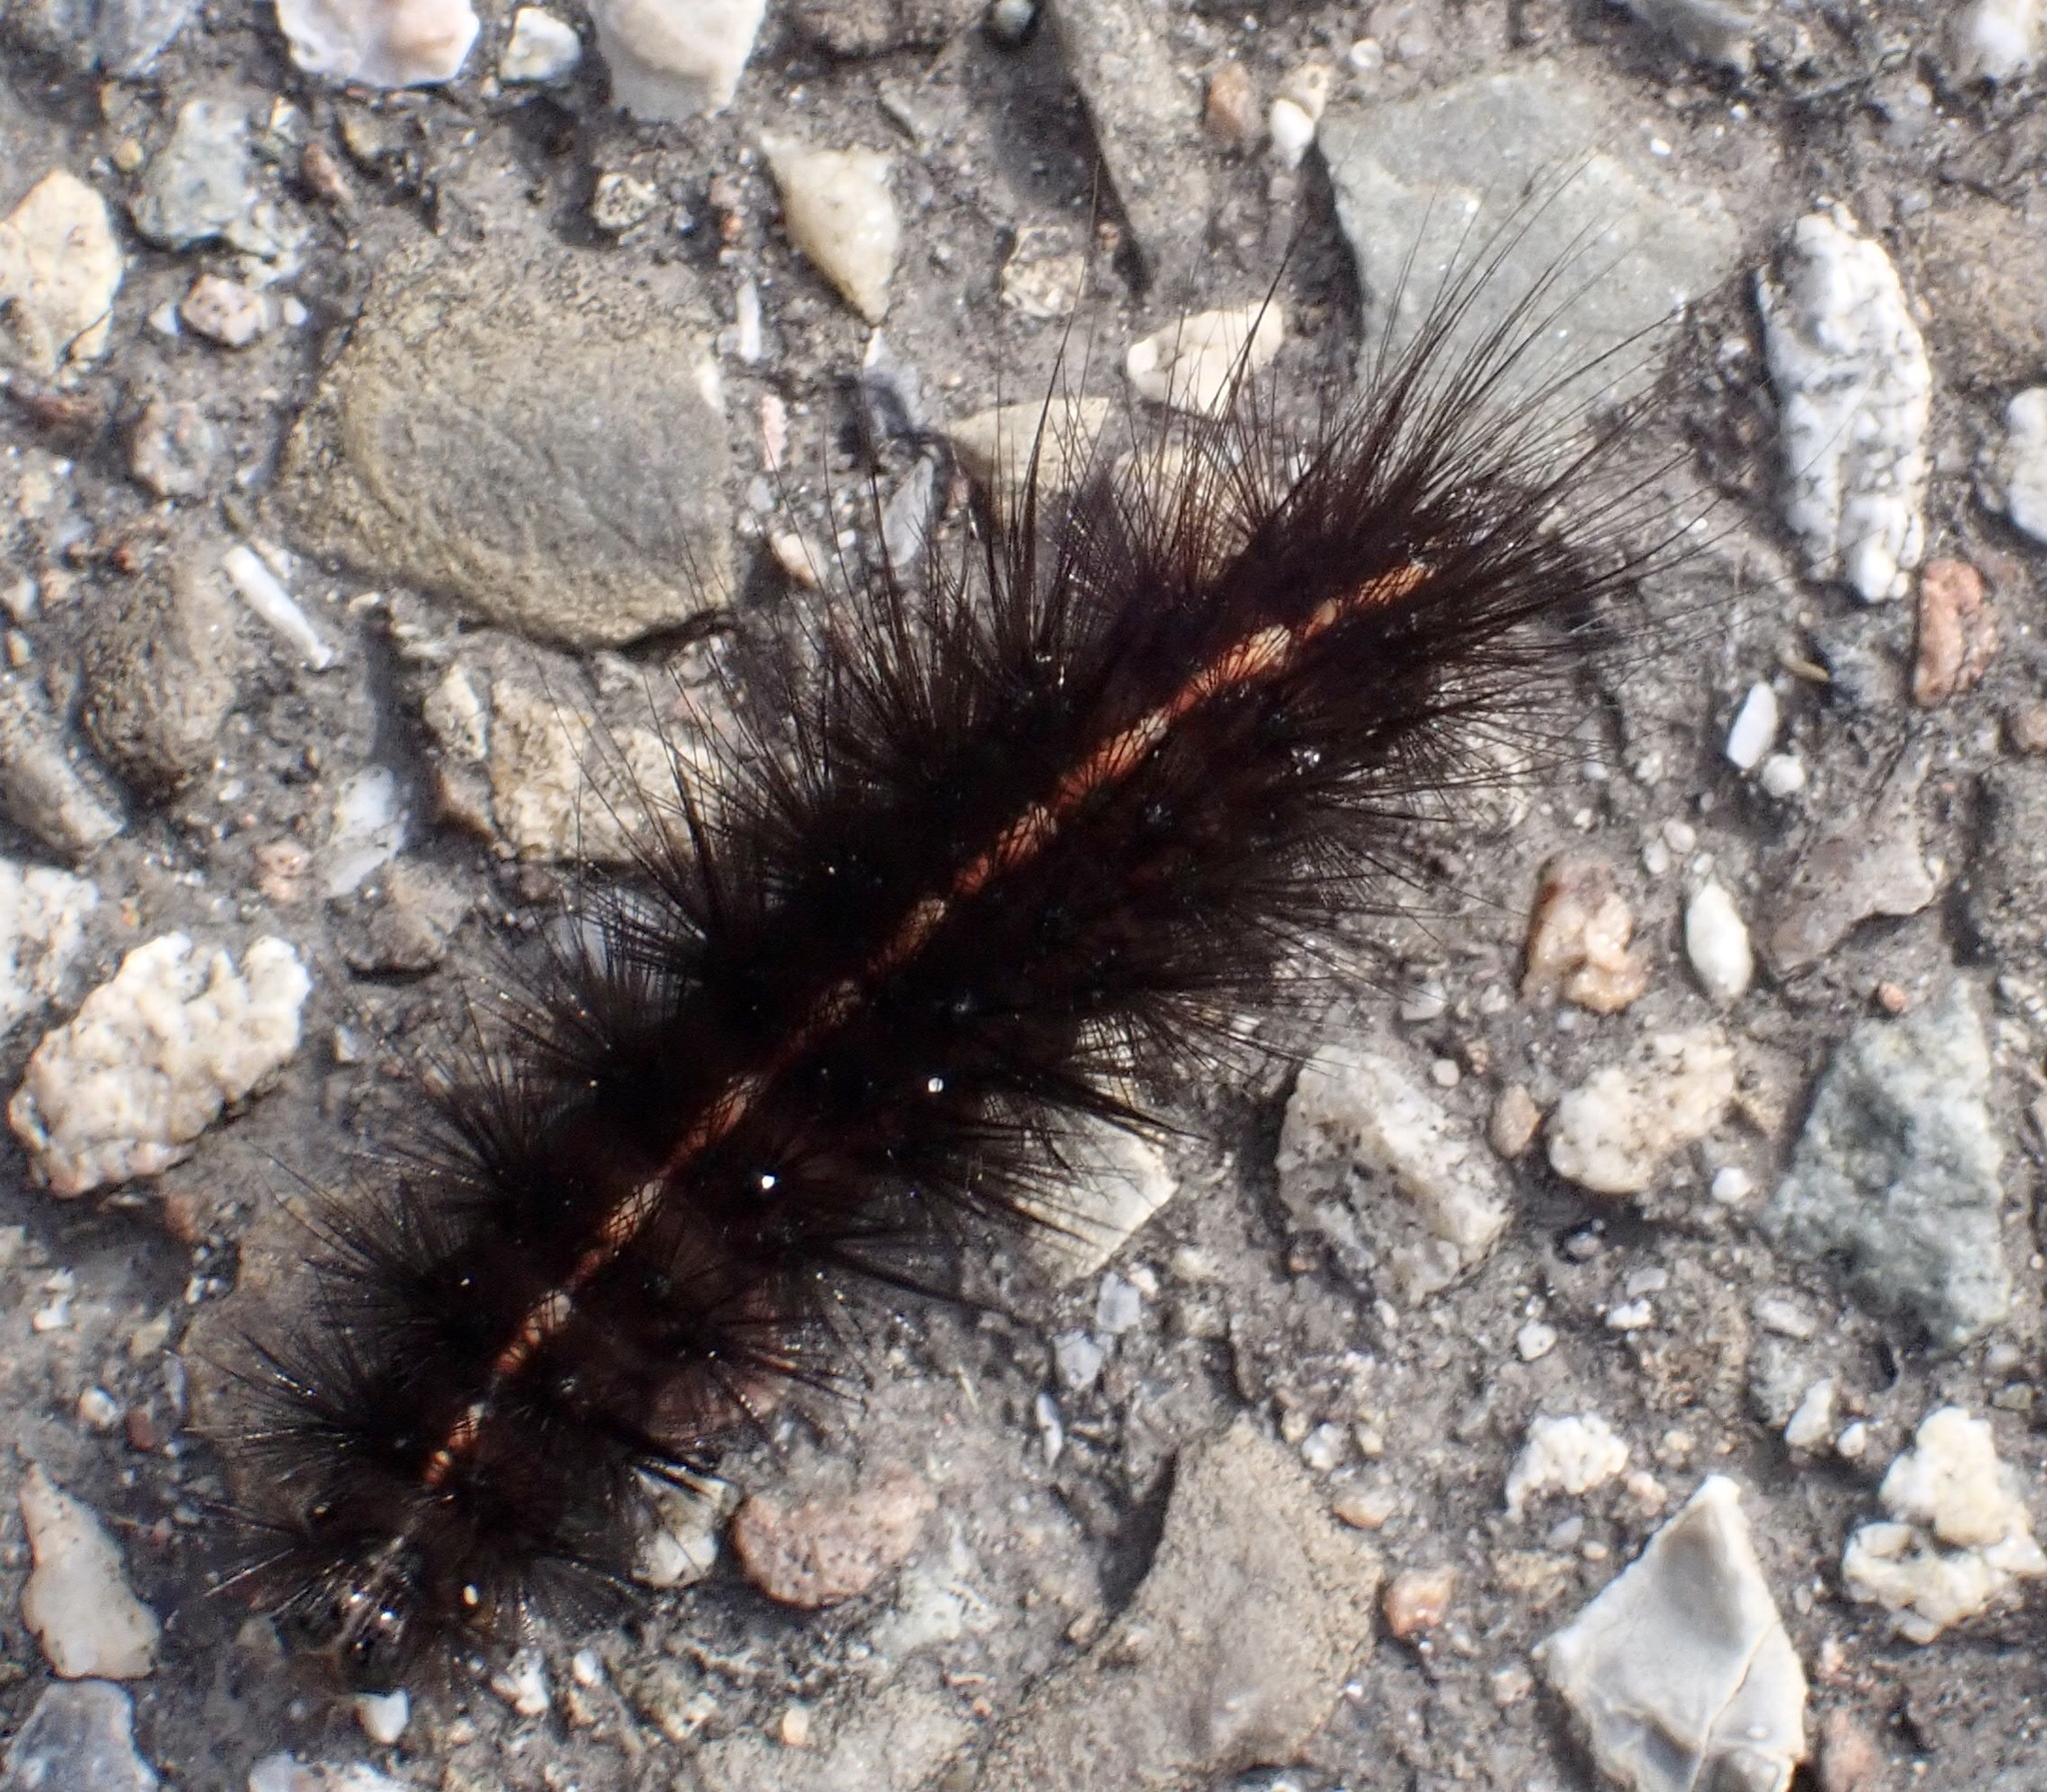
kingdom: Animalia
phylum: Arthropoda
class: Insecta
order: Lepidoptera
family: Erebidae
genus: Spilosoma
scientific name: Spilosoma lubricipeda
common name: White ermine
